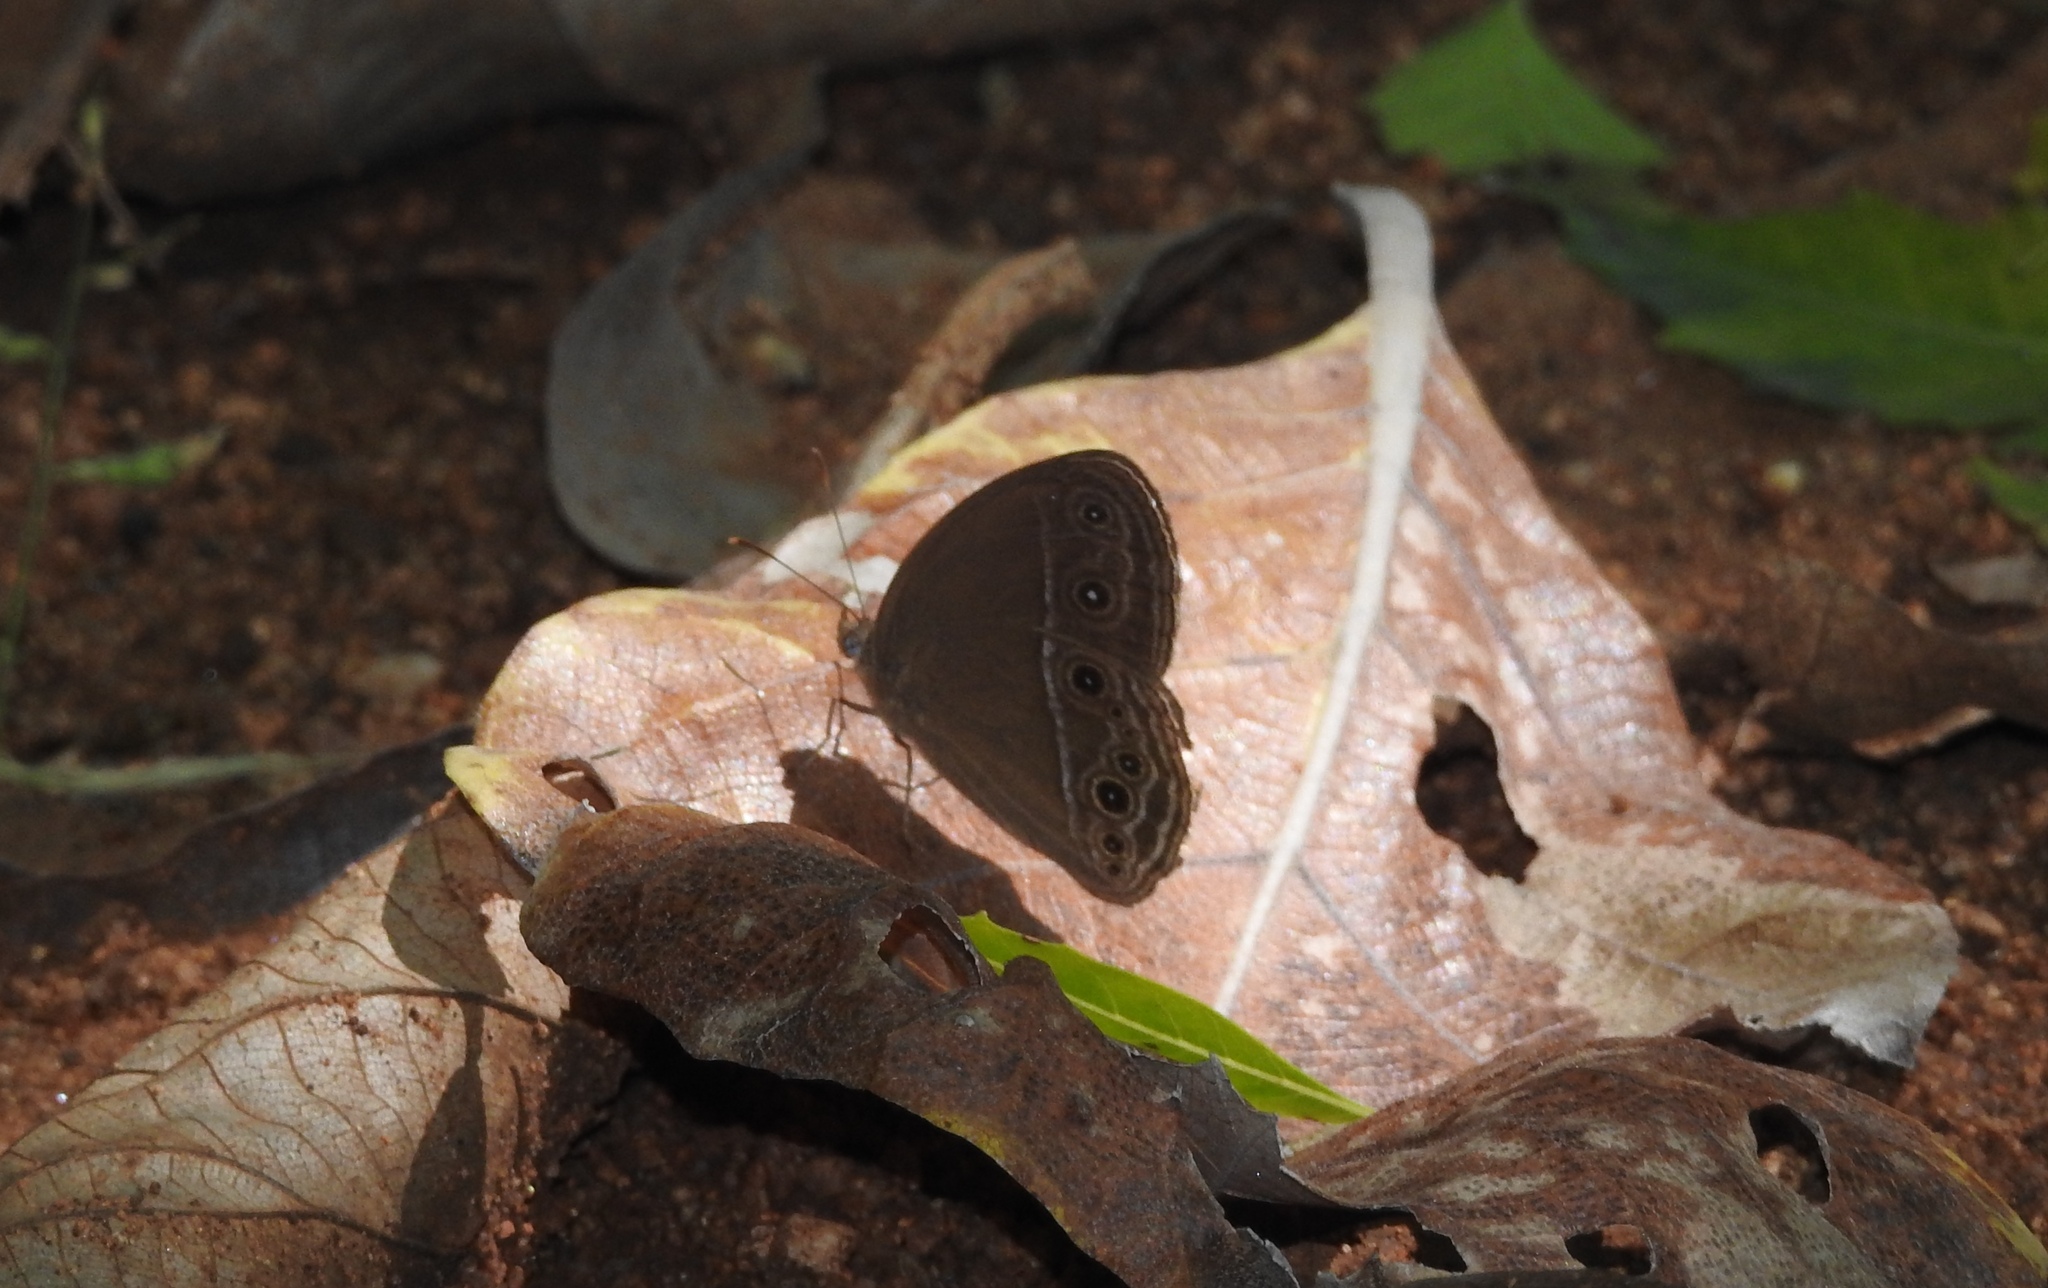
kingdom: Animalia
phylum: Arthropoda
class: Insecta
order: Lepidoptera
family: Nymphalidae
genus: Mycalesis
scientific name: Mycalesis perseus
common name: Dingy bushbrown
